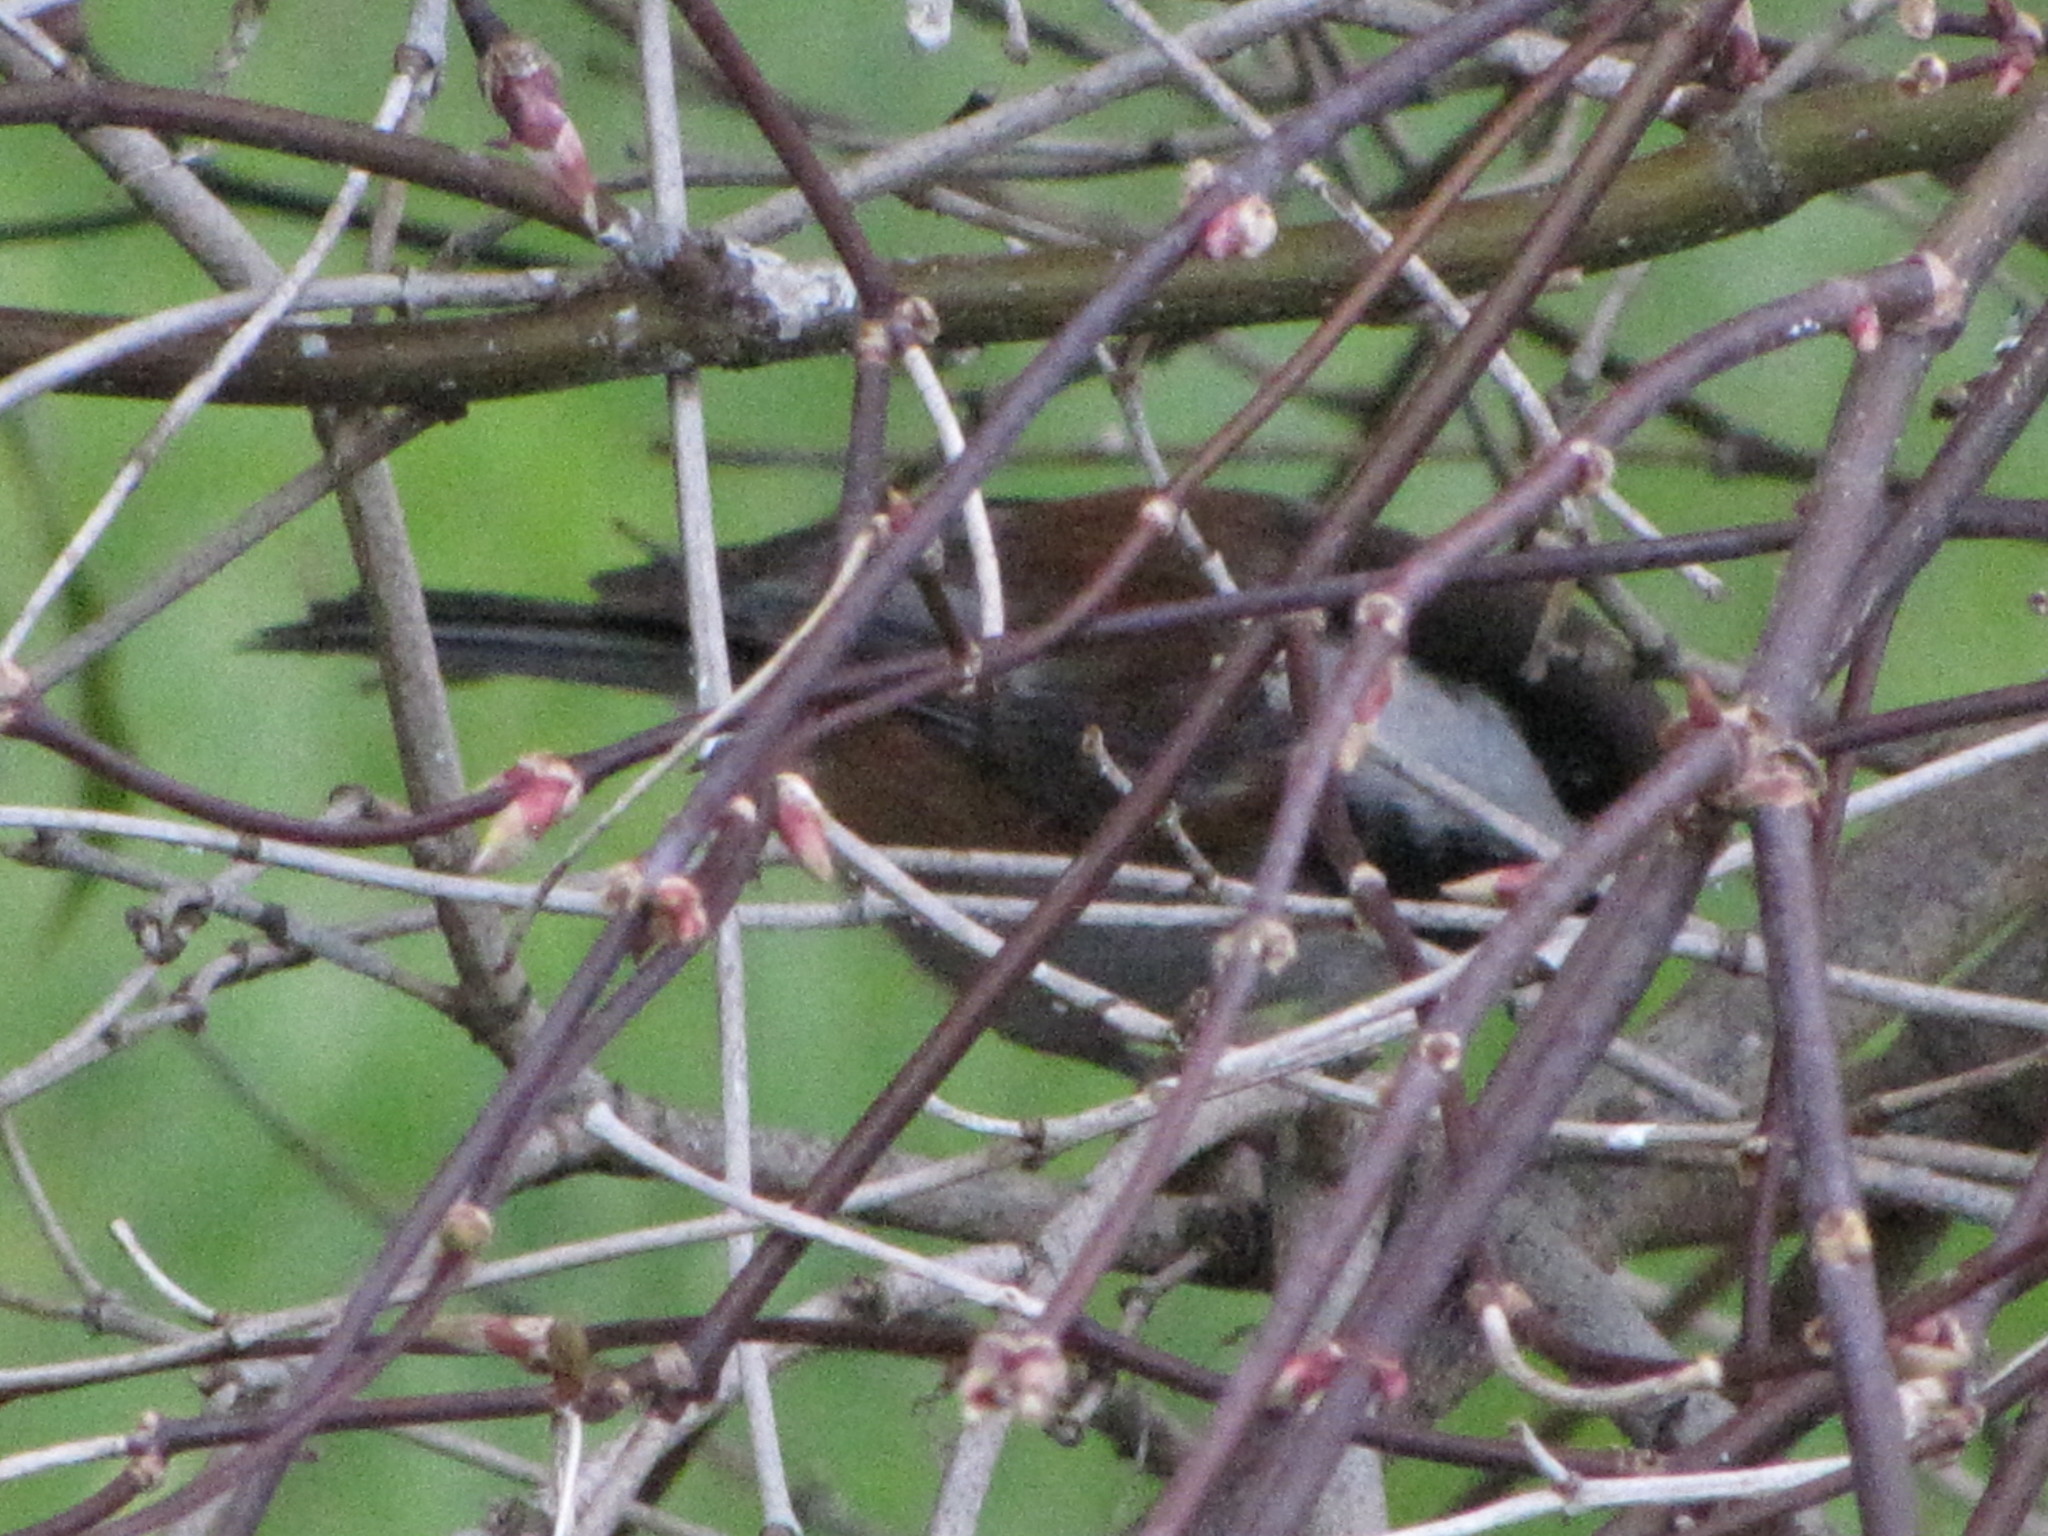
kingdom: Animalia
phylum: Chordata
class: Aves
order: Passeriformes
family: Paridae
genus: Poecile
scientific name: Poecile rufescens
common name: Chestnut-backed chickadee
